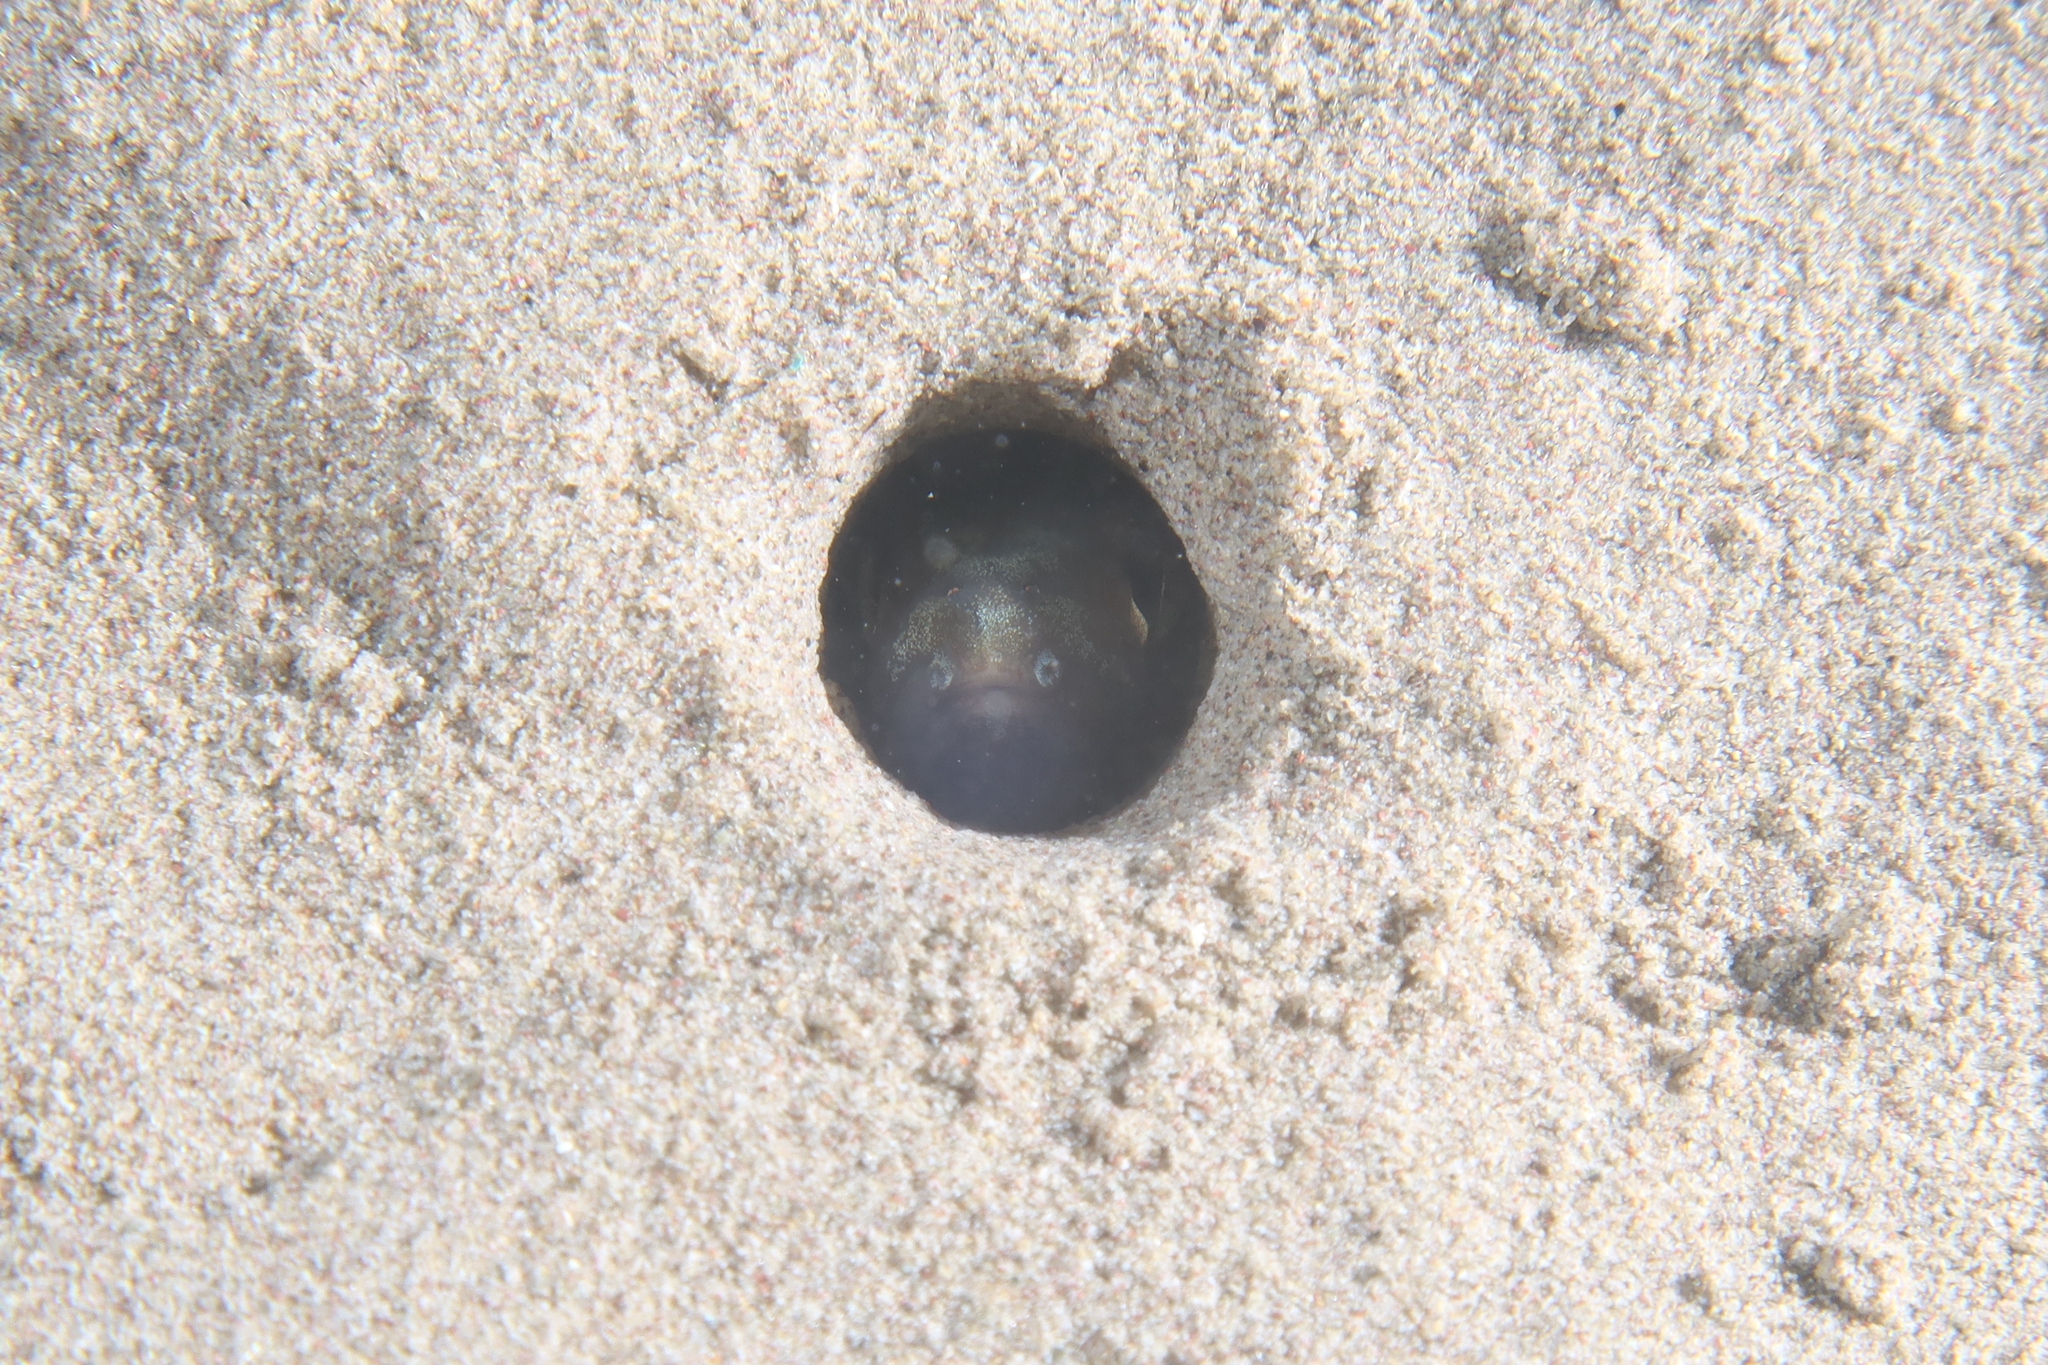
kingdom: Animalia
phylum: Chordata
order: Anguilliformes
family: Congridae
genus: Ariosoma
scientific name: Ariosoma balearicum
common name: Bandtooth conger
